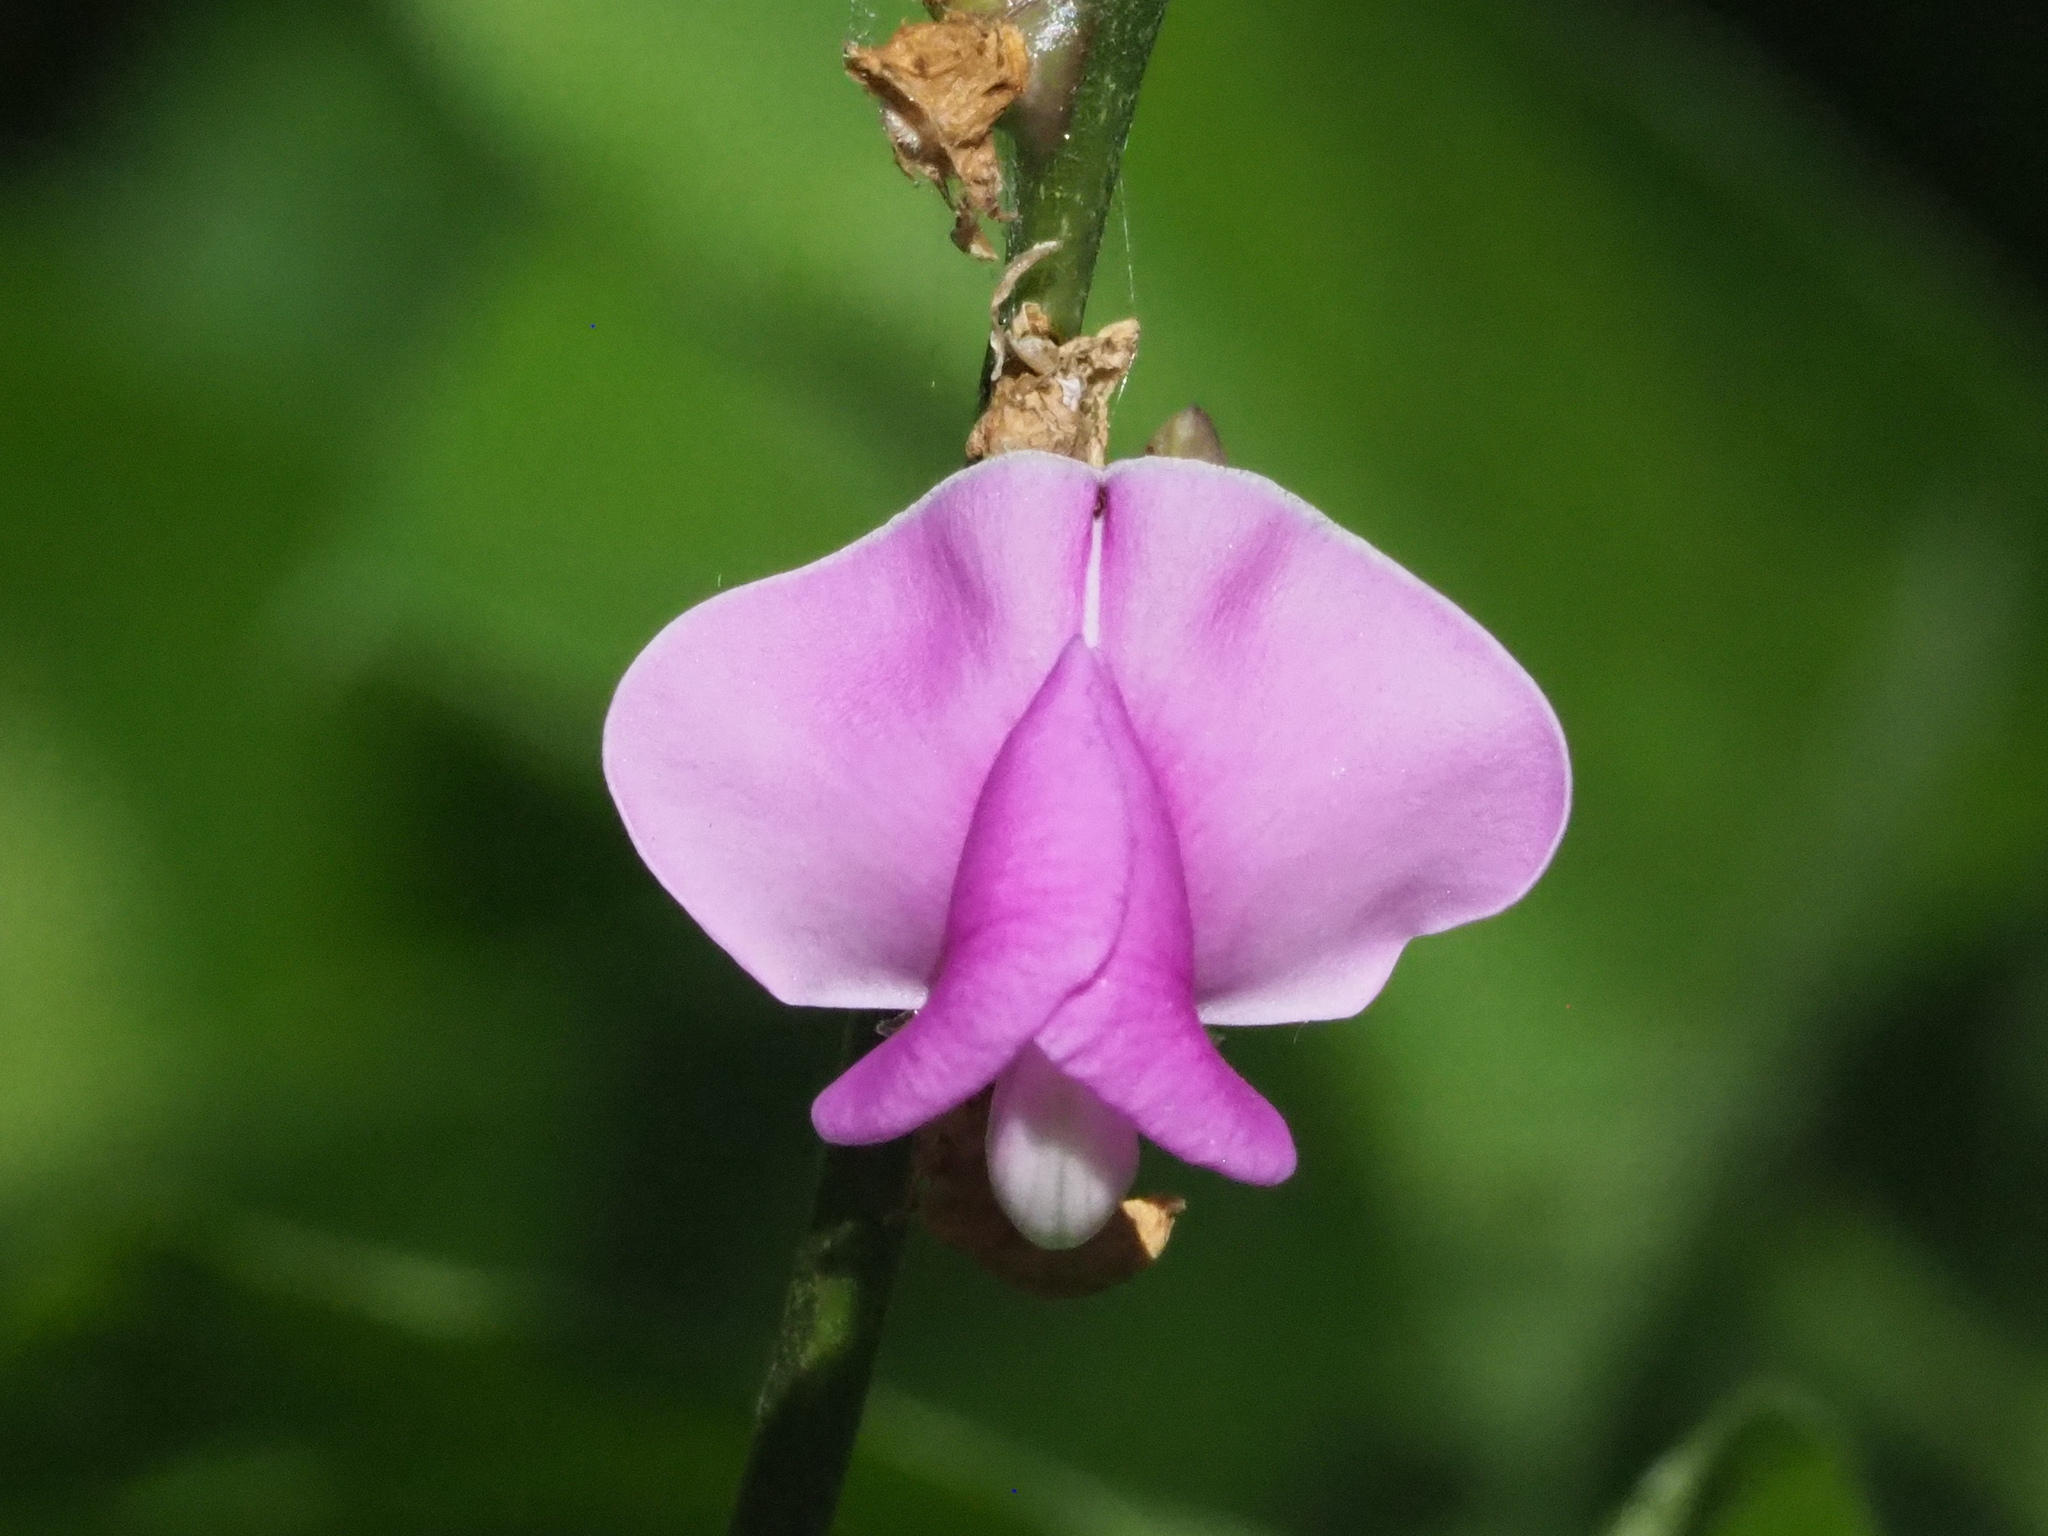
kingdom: Plantae
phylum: Tracheophyta
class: Magnoliopsida
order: Fabales
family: Fabaceae
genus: Lablab
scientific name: Lablab purpureus
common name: Lablab-bean
